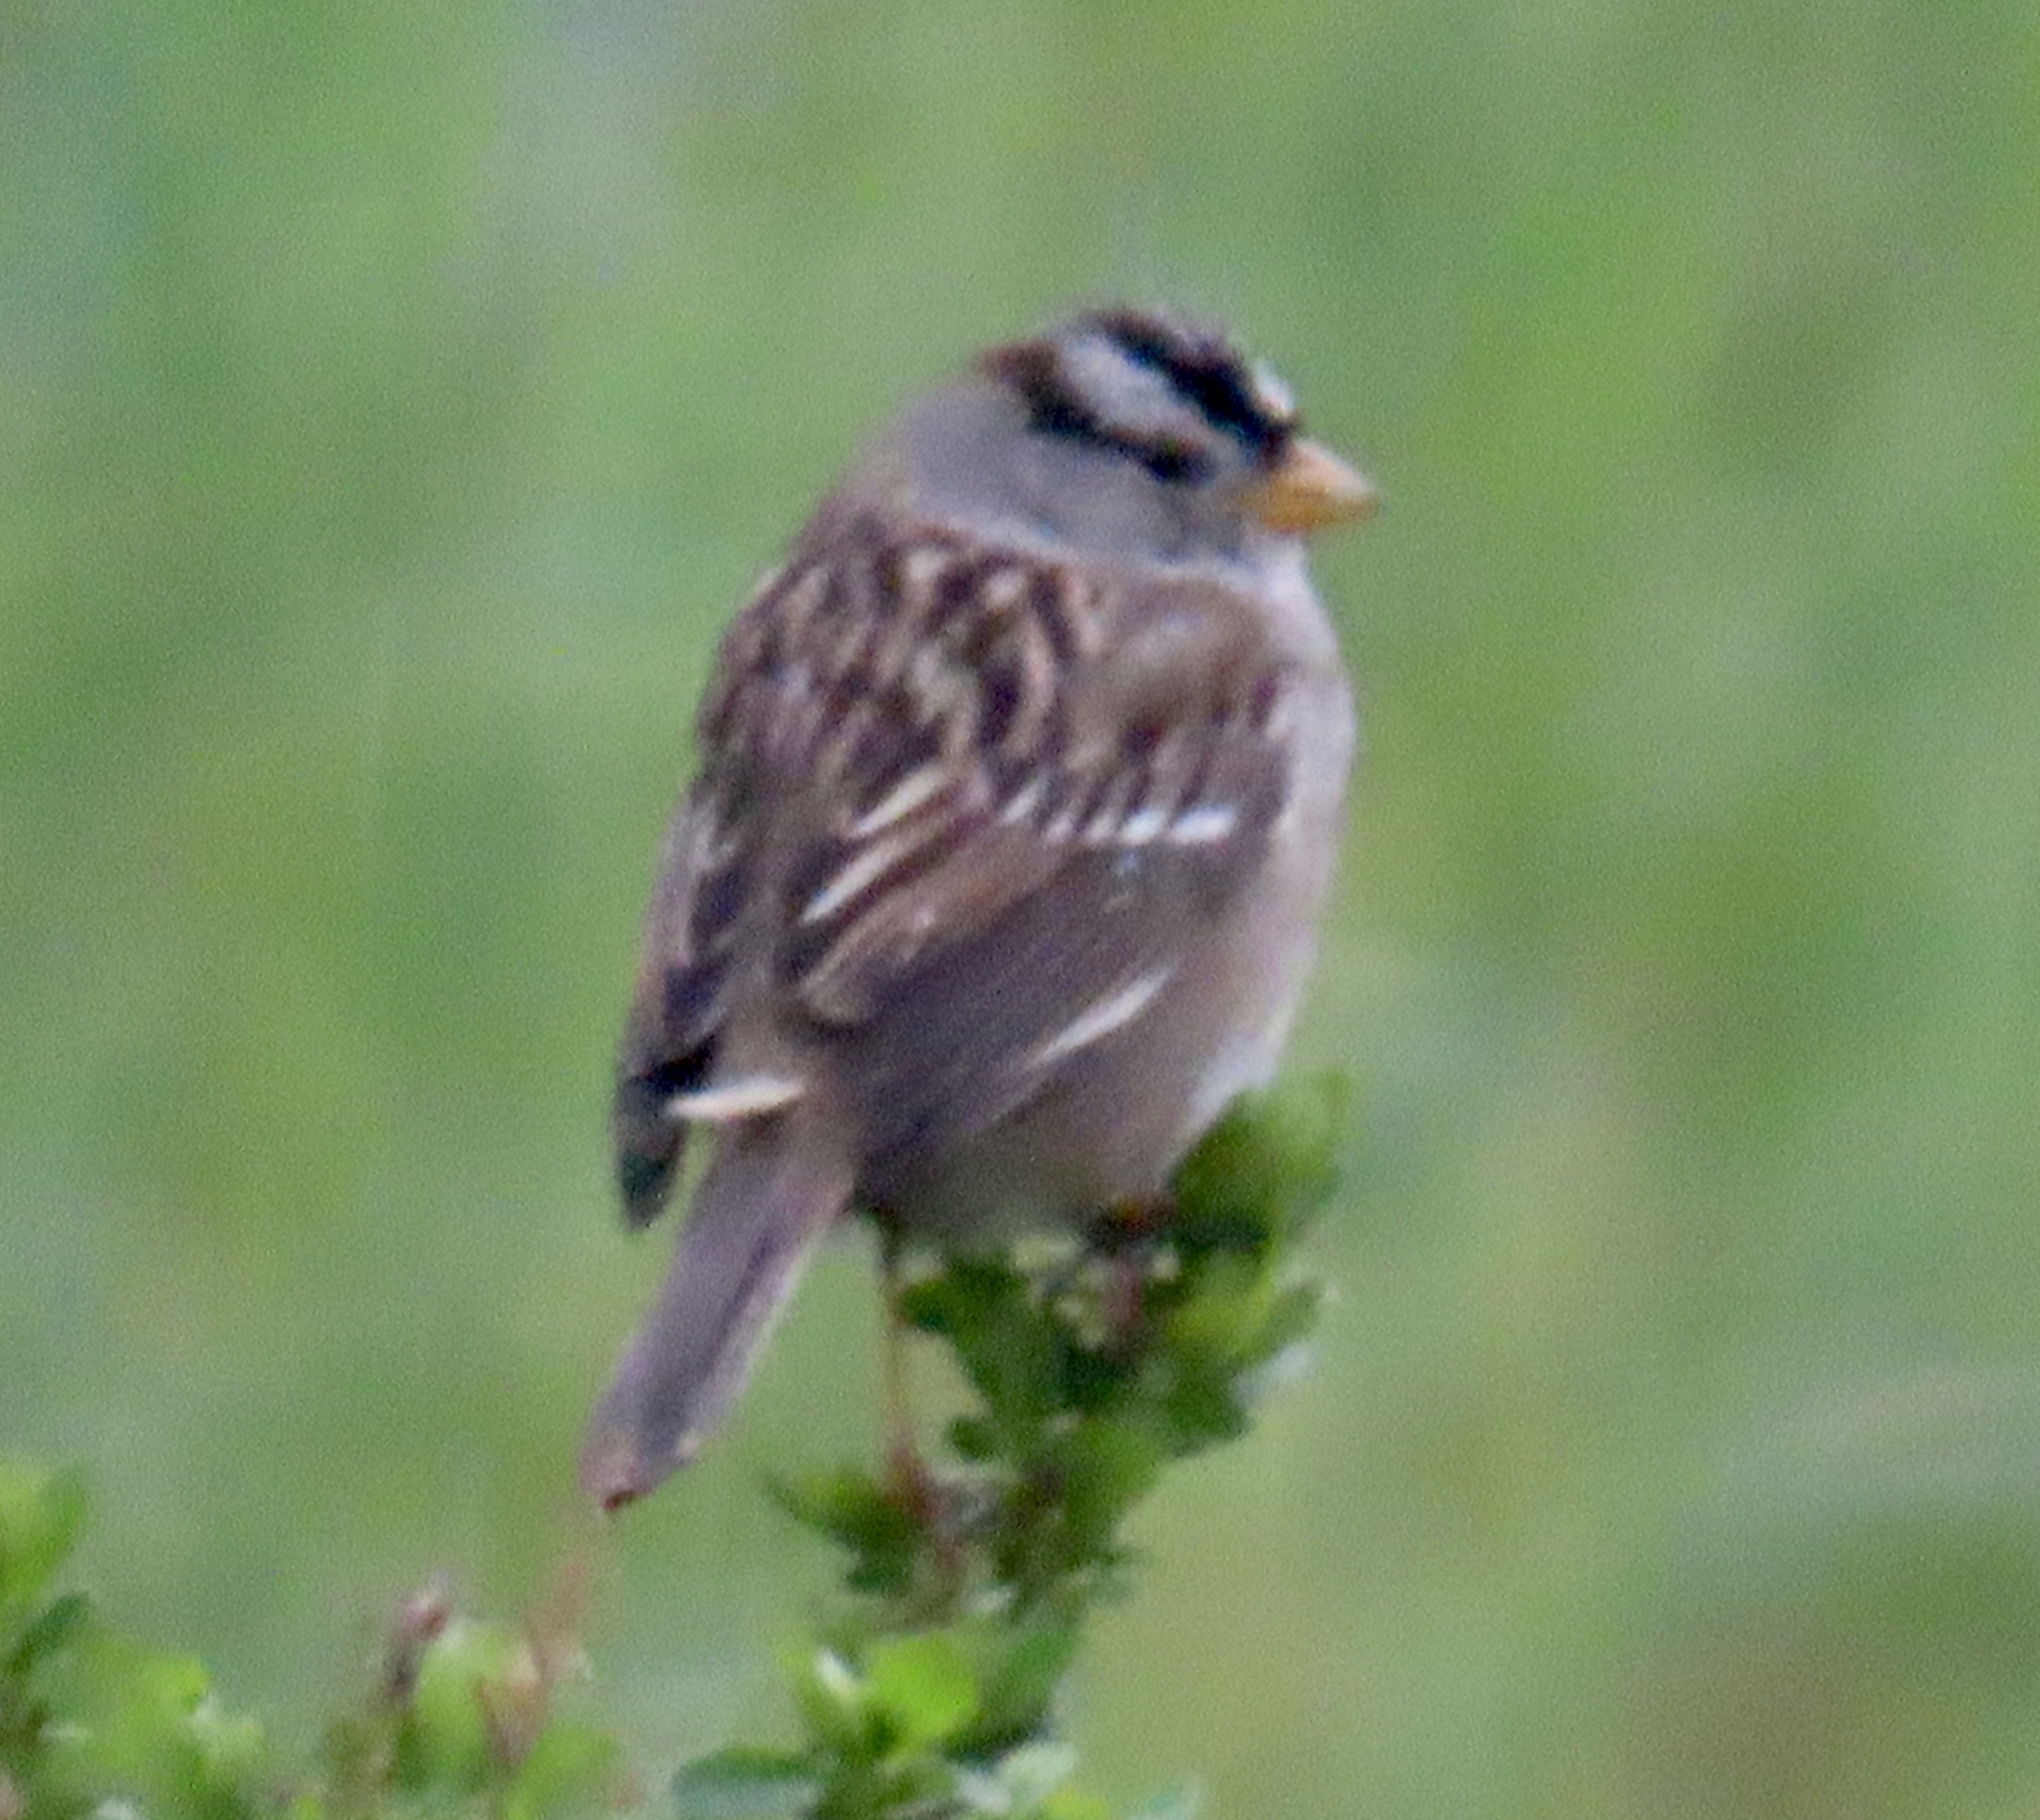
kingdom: Animalia
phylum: Chordata
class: Aves
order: Passeriformes
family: Passerellidae
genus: Zonotrichia
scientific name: Zonotrichia leucophrys
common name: White-crowned sparrow
